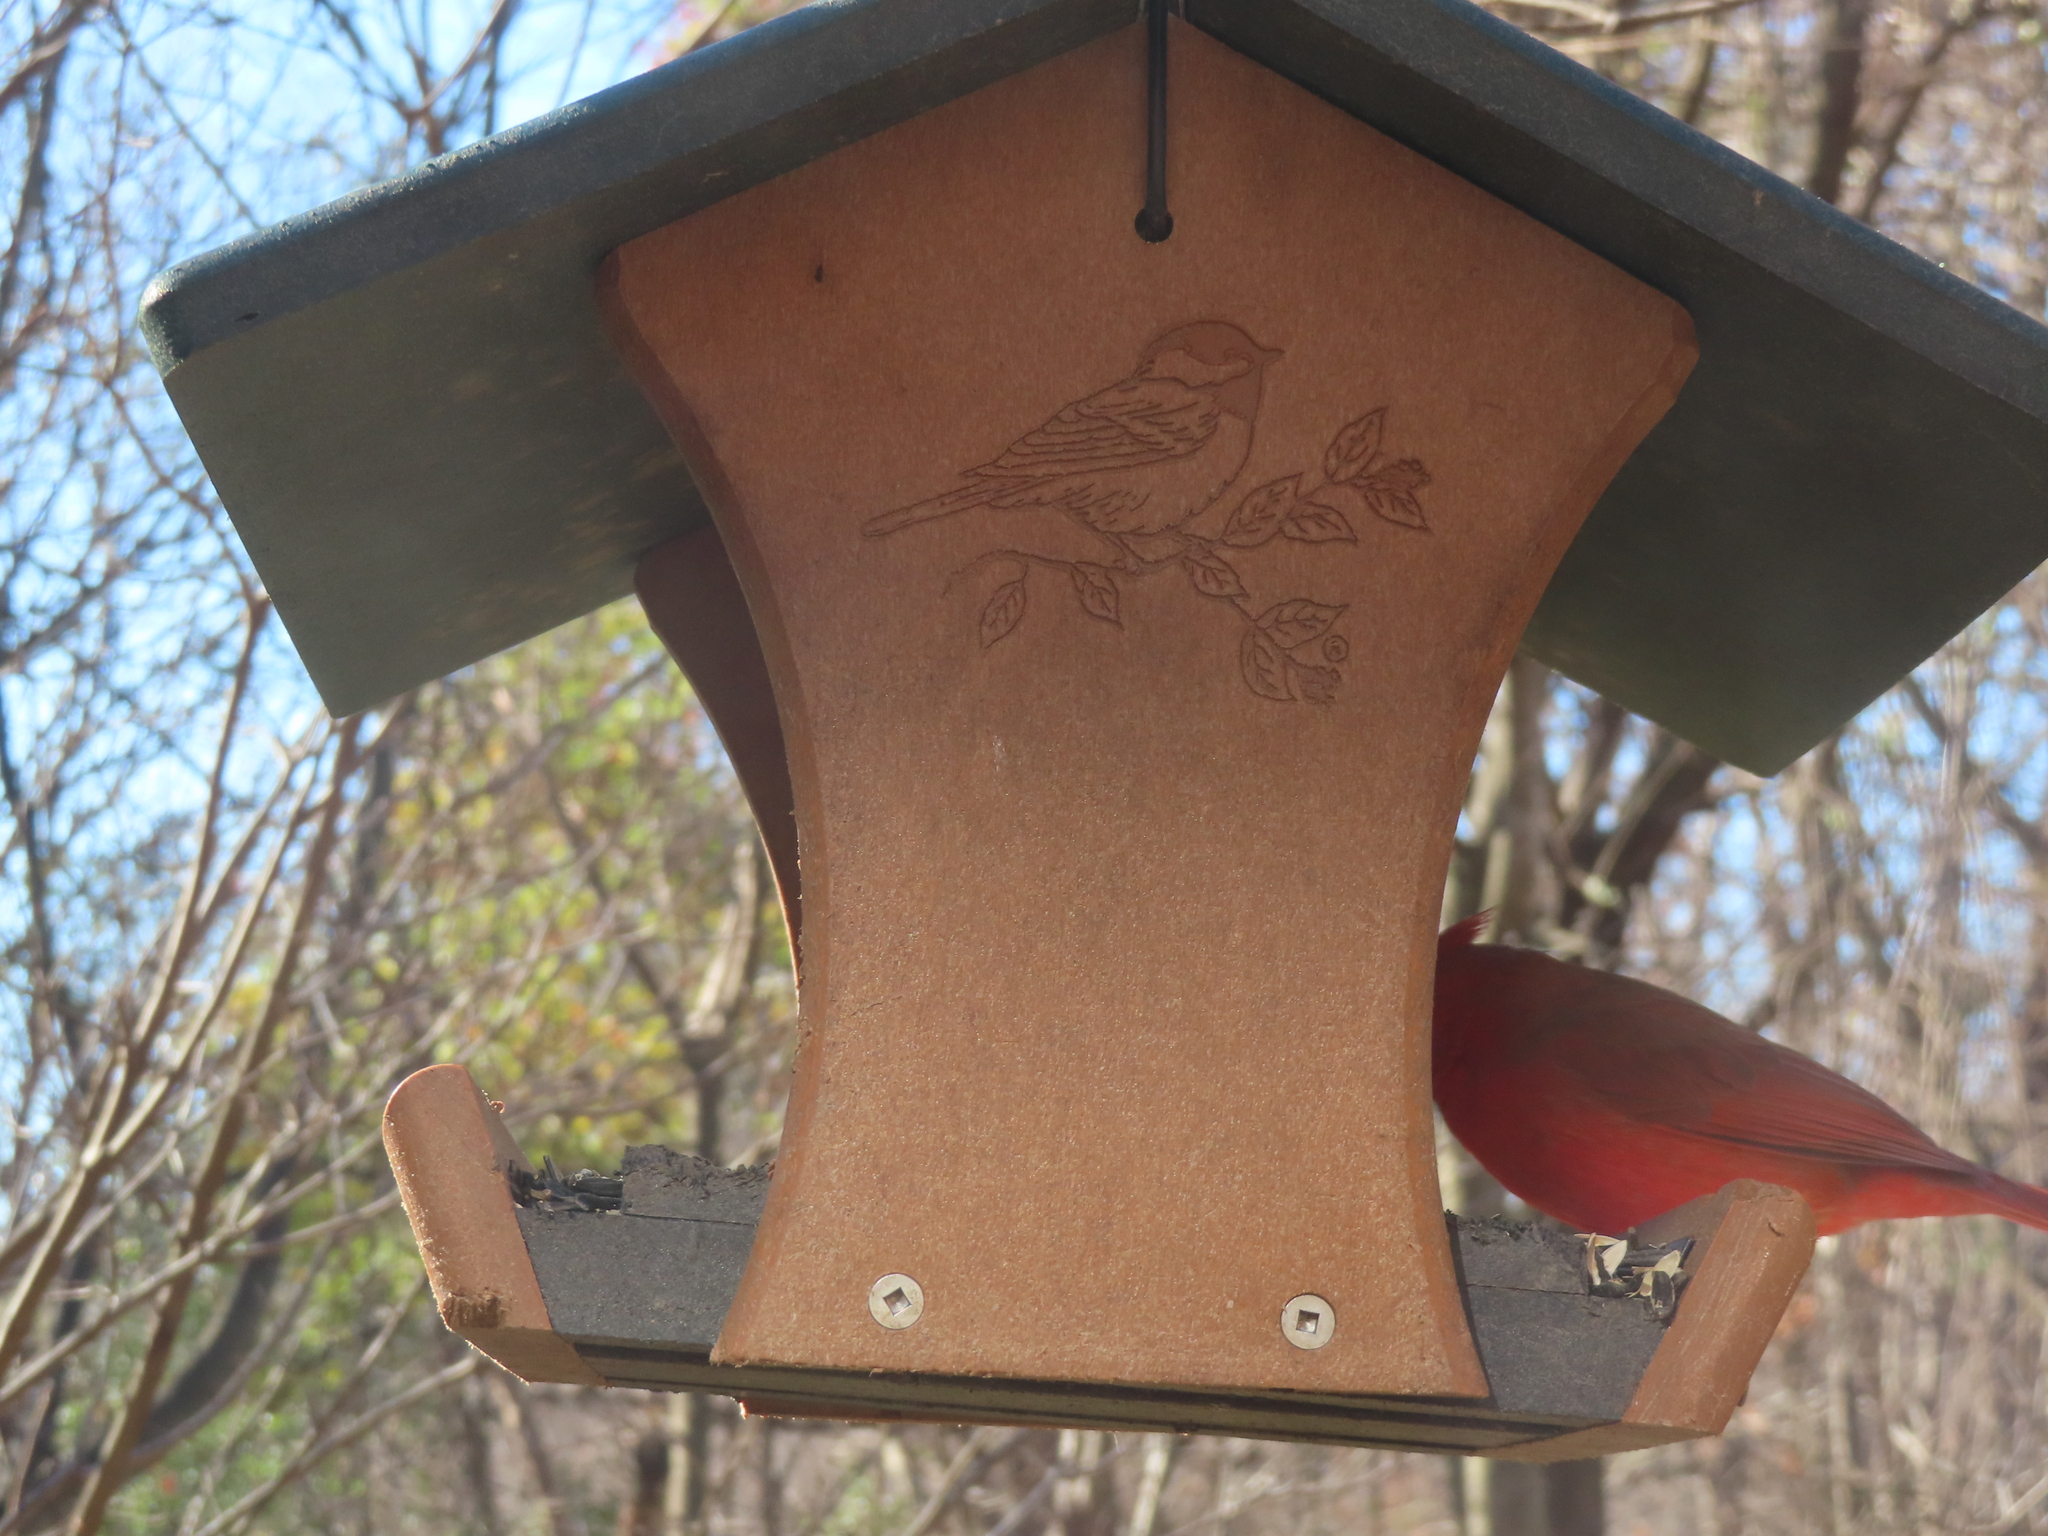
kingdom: Animalia
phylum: Chordata
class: Aves
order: Passeriformes
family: Cardinalidae
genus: Cardinalis
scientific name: Cardinalis cardinalis
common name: Northern cardinal
